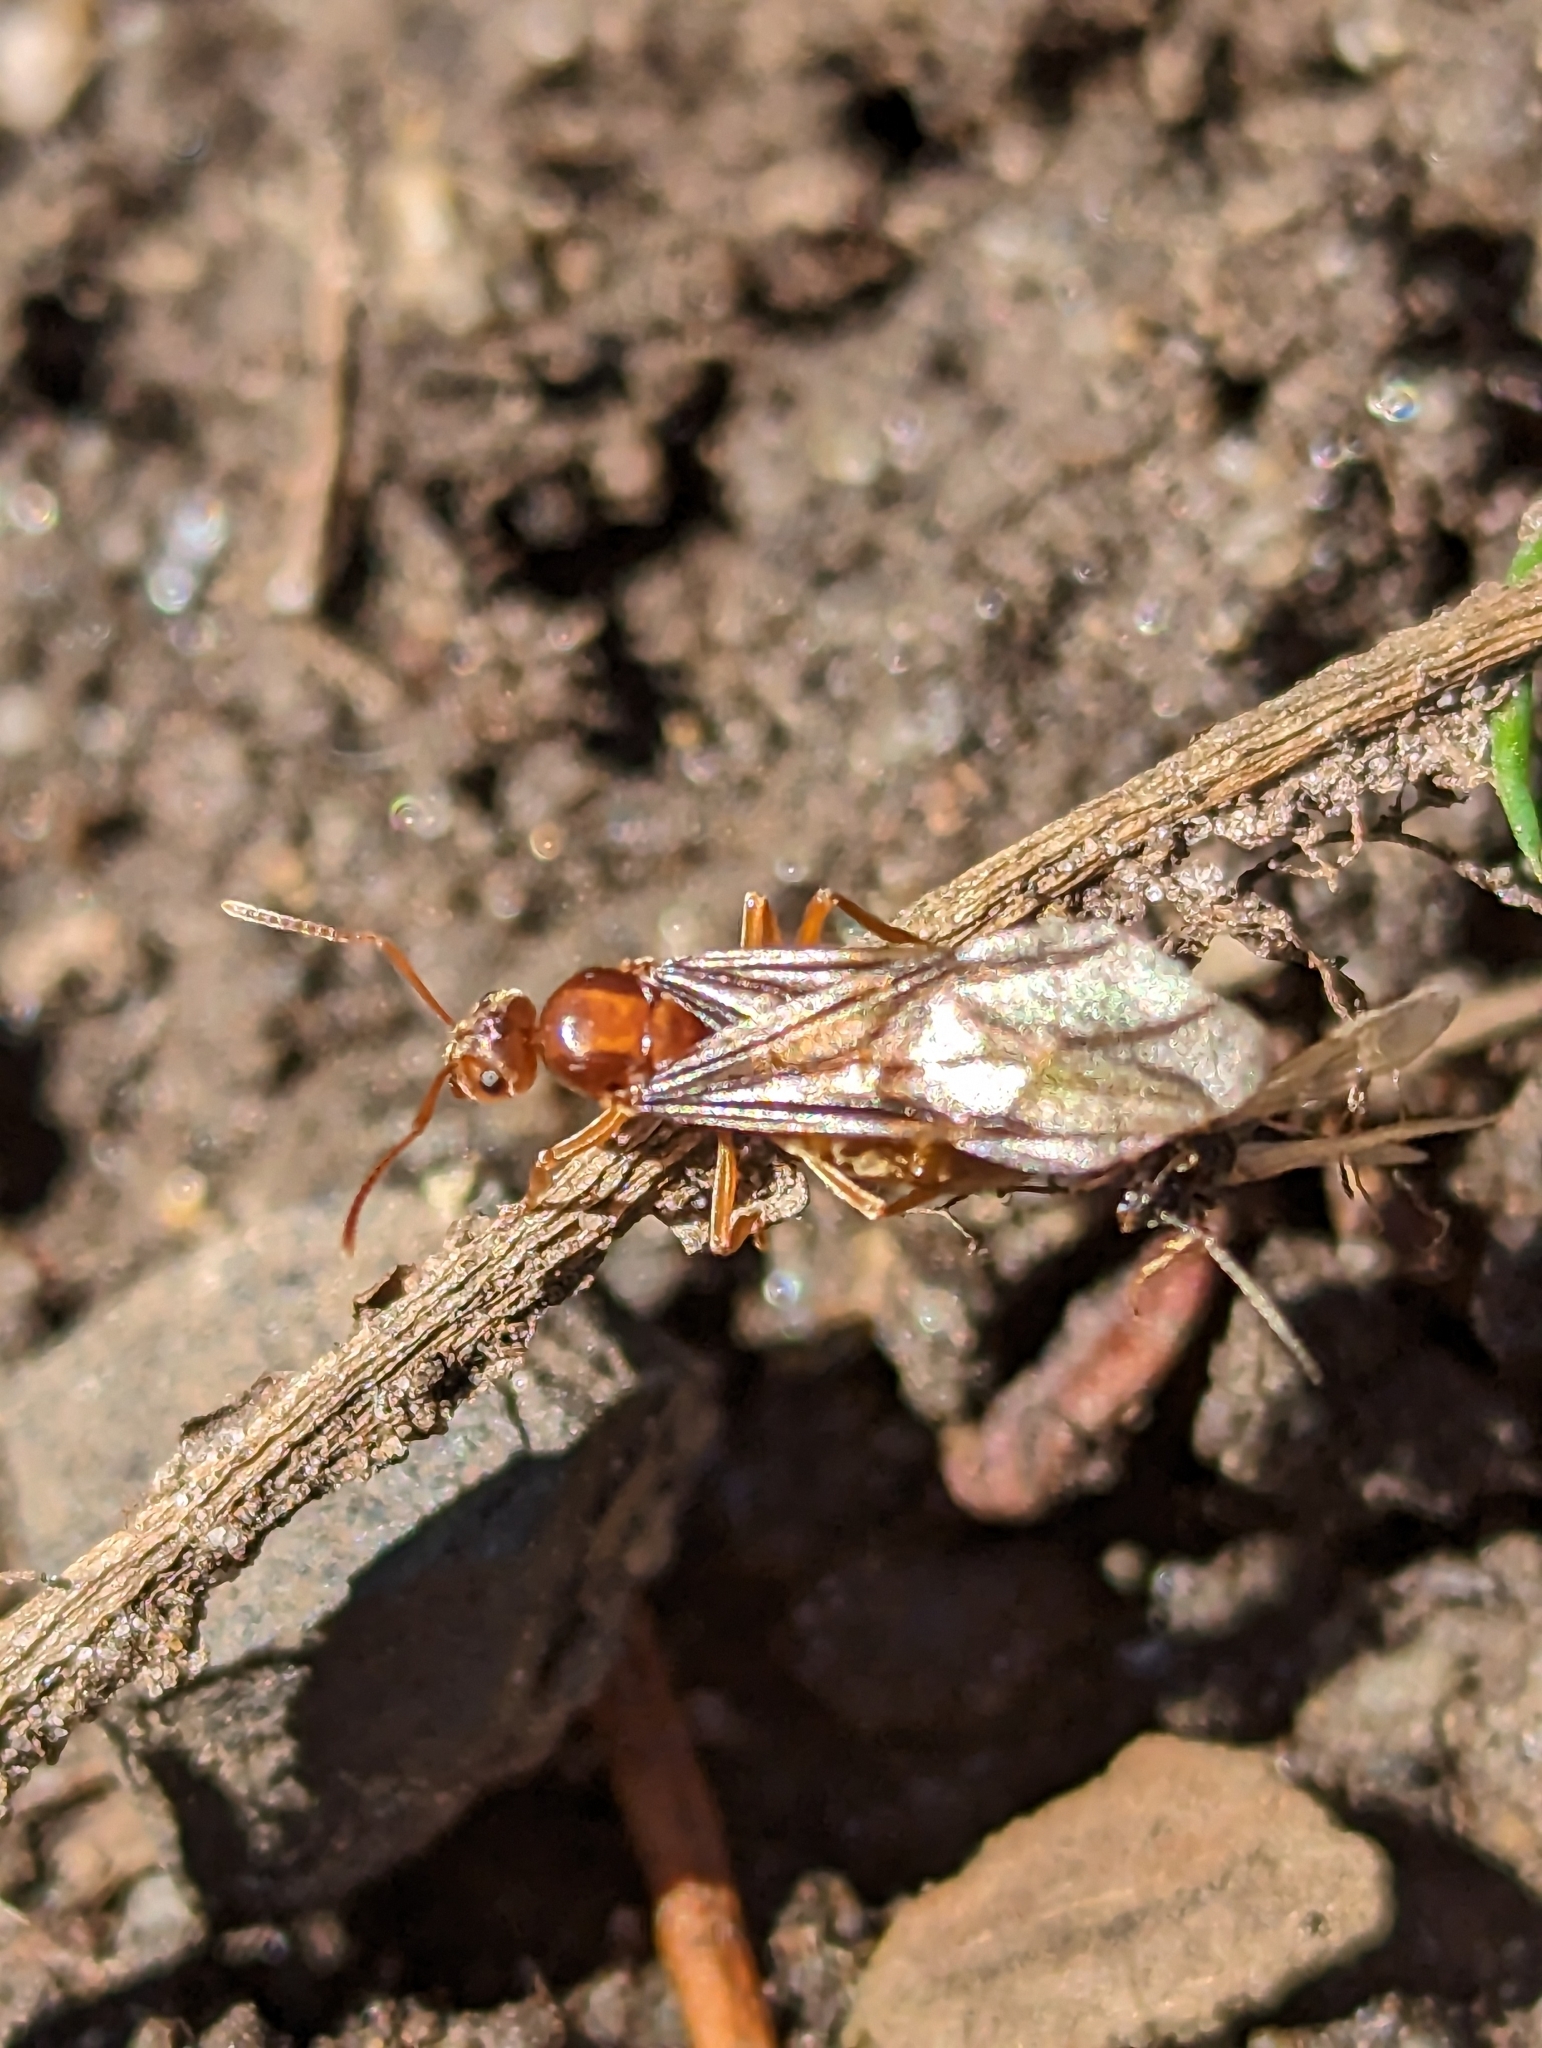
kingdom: Animalia
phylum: Arthropoda
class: Insecta
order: Hymenoptera
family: Formicidae
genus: Prenolepis
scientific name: Prenolepis imparis
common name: Small honey ant
